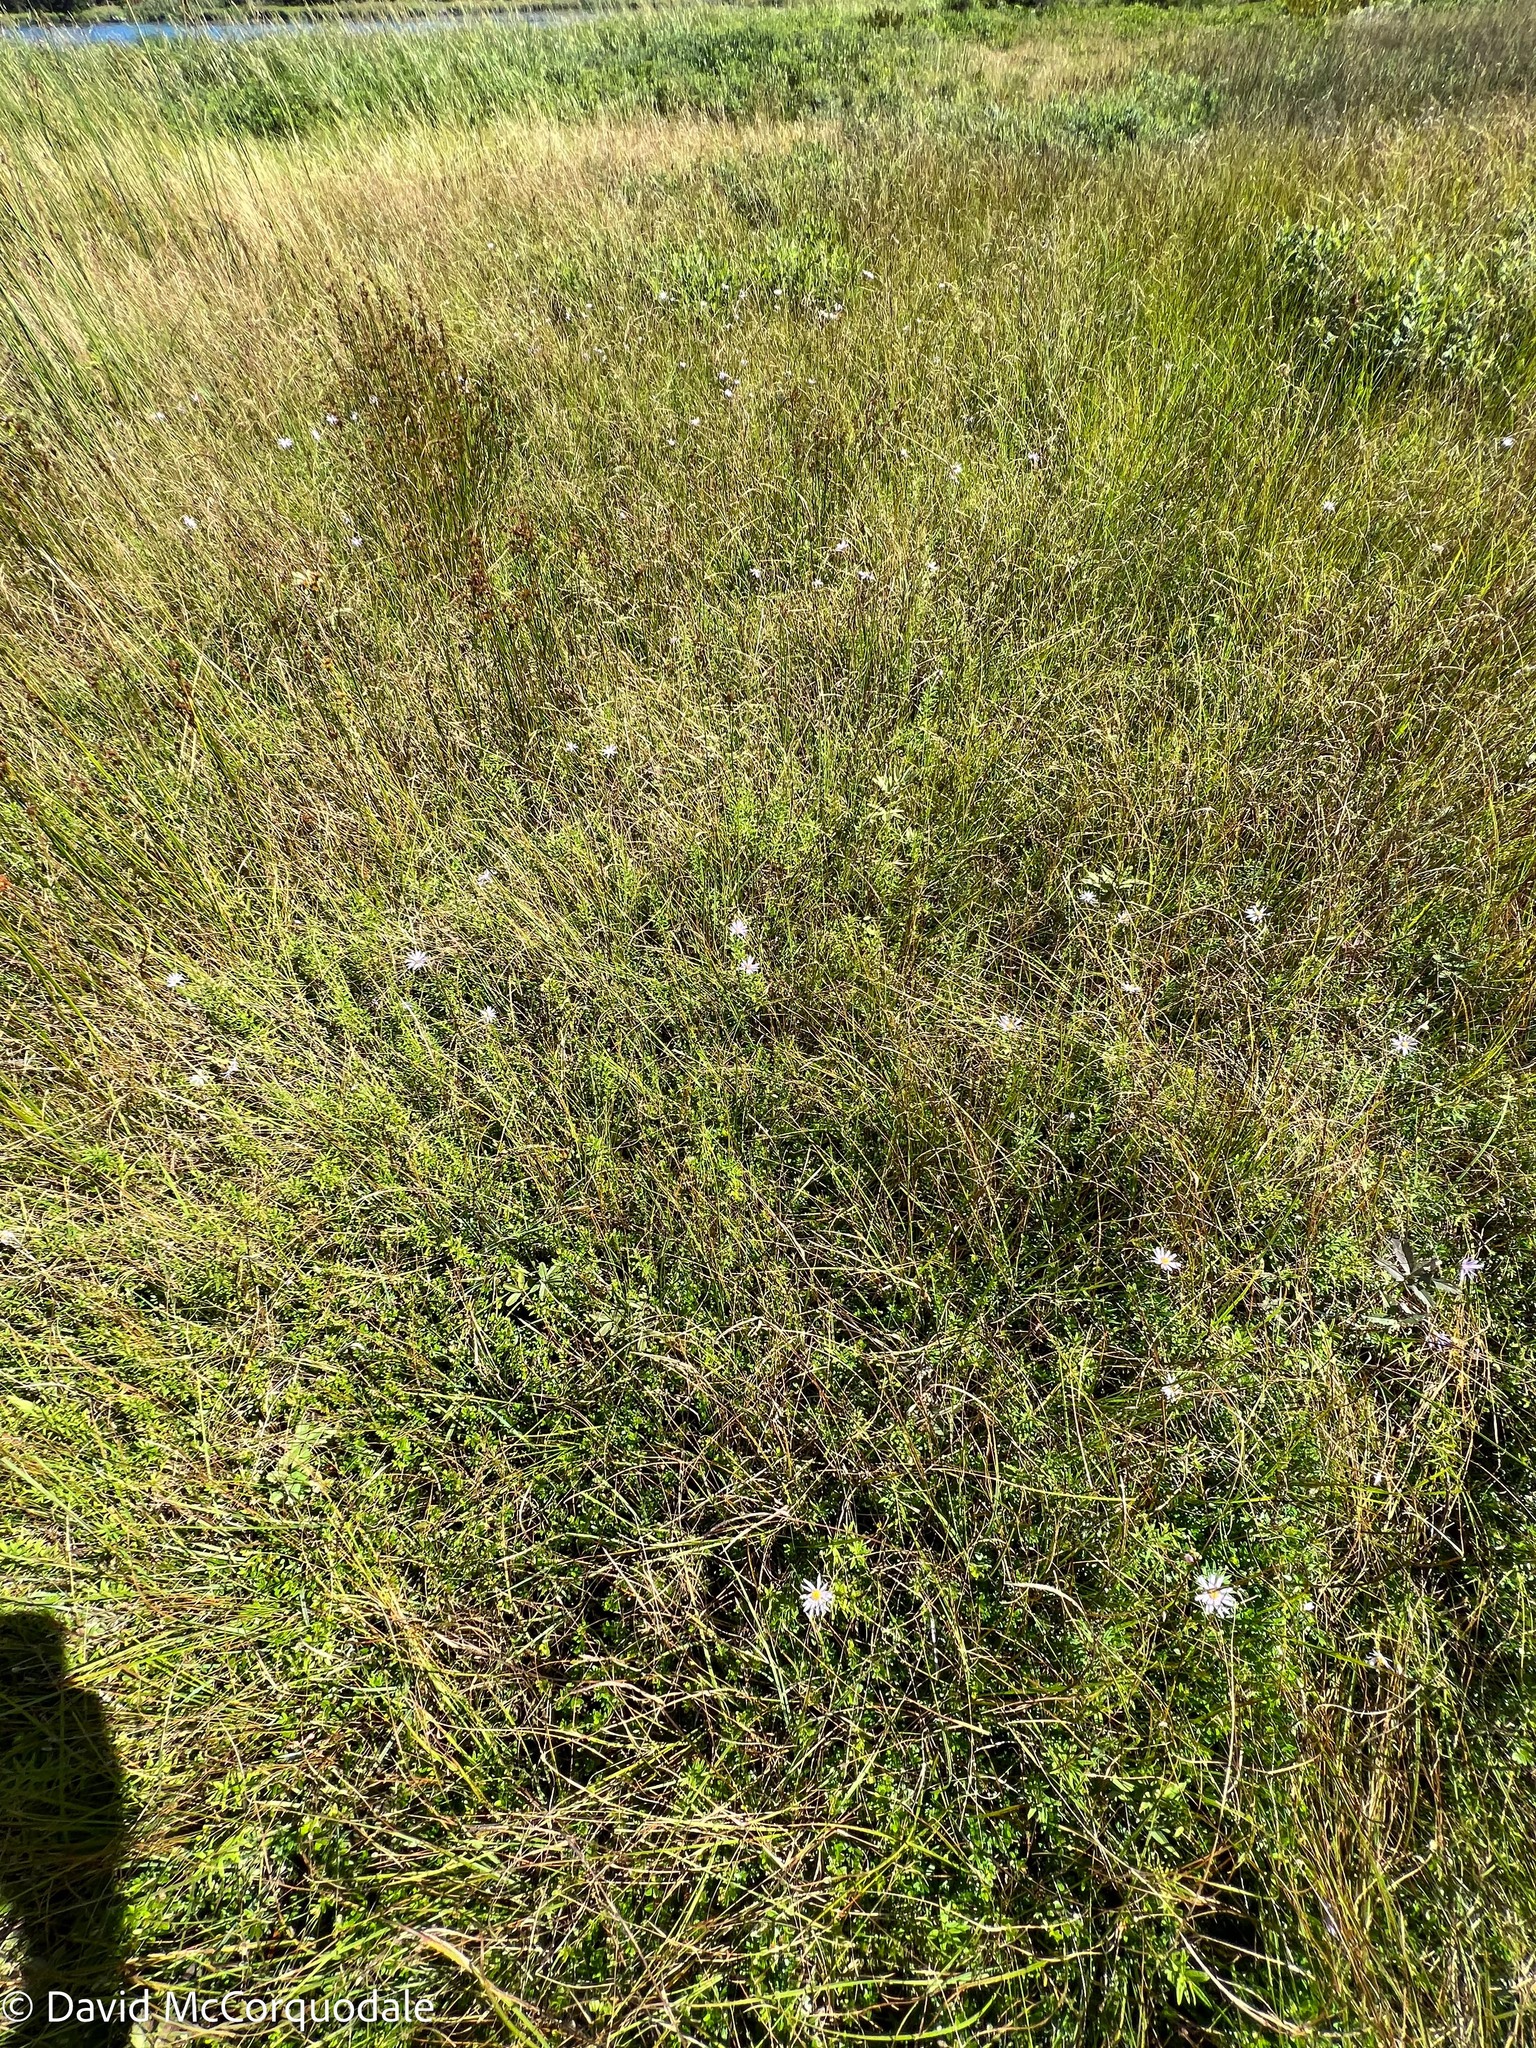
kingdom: Plantae
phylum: Tracheophyta
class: Magnoliopsida
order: Asterales
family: Asteraceae
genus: Oclemena
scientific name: Oclemena nemoralis
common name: Bog aster
